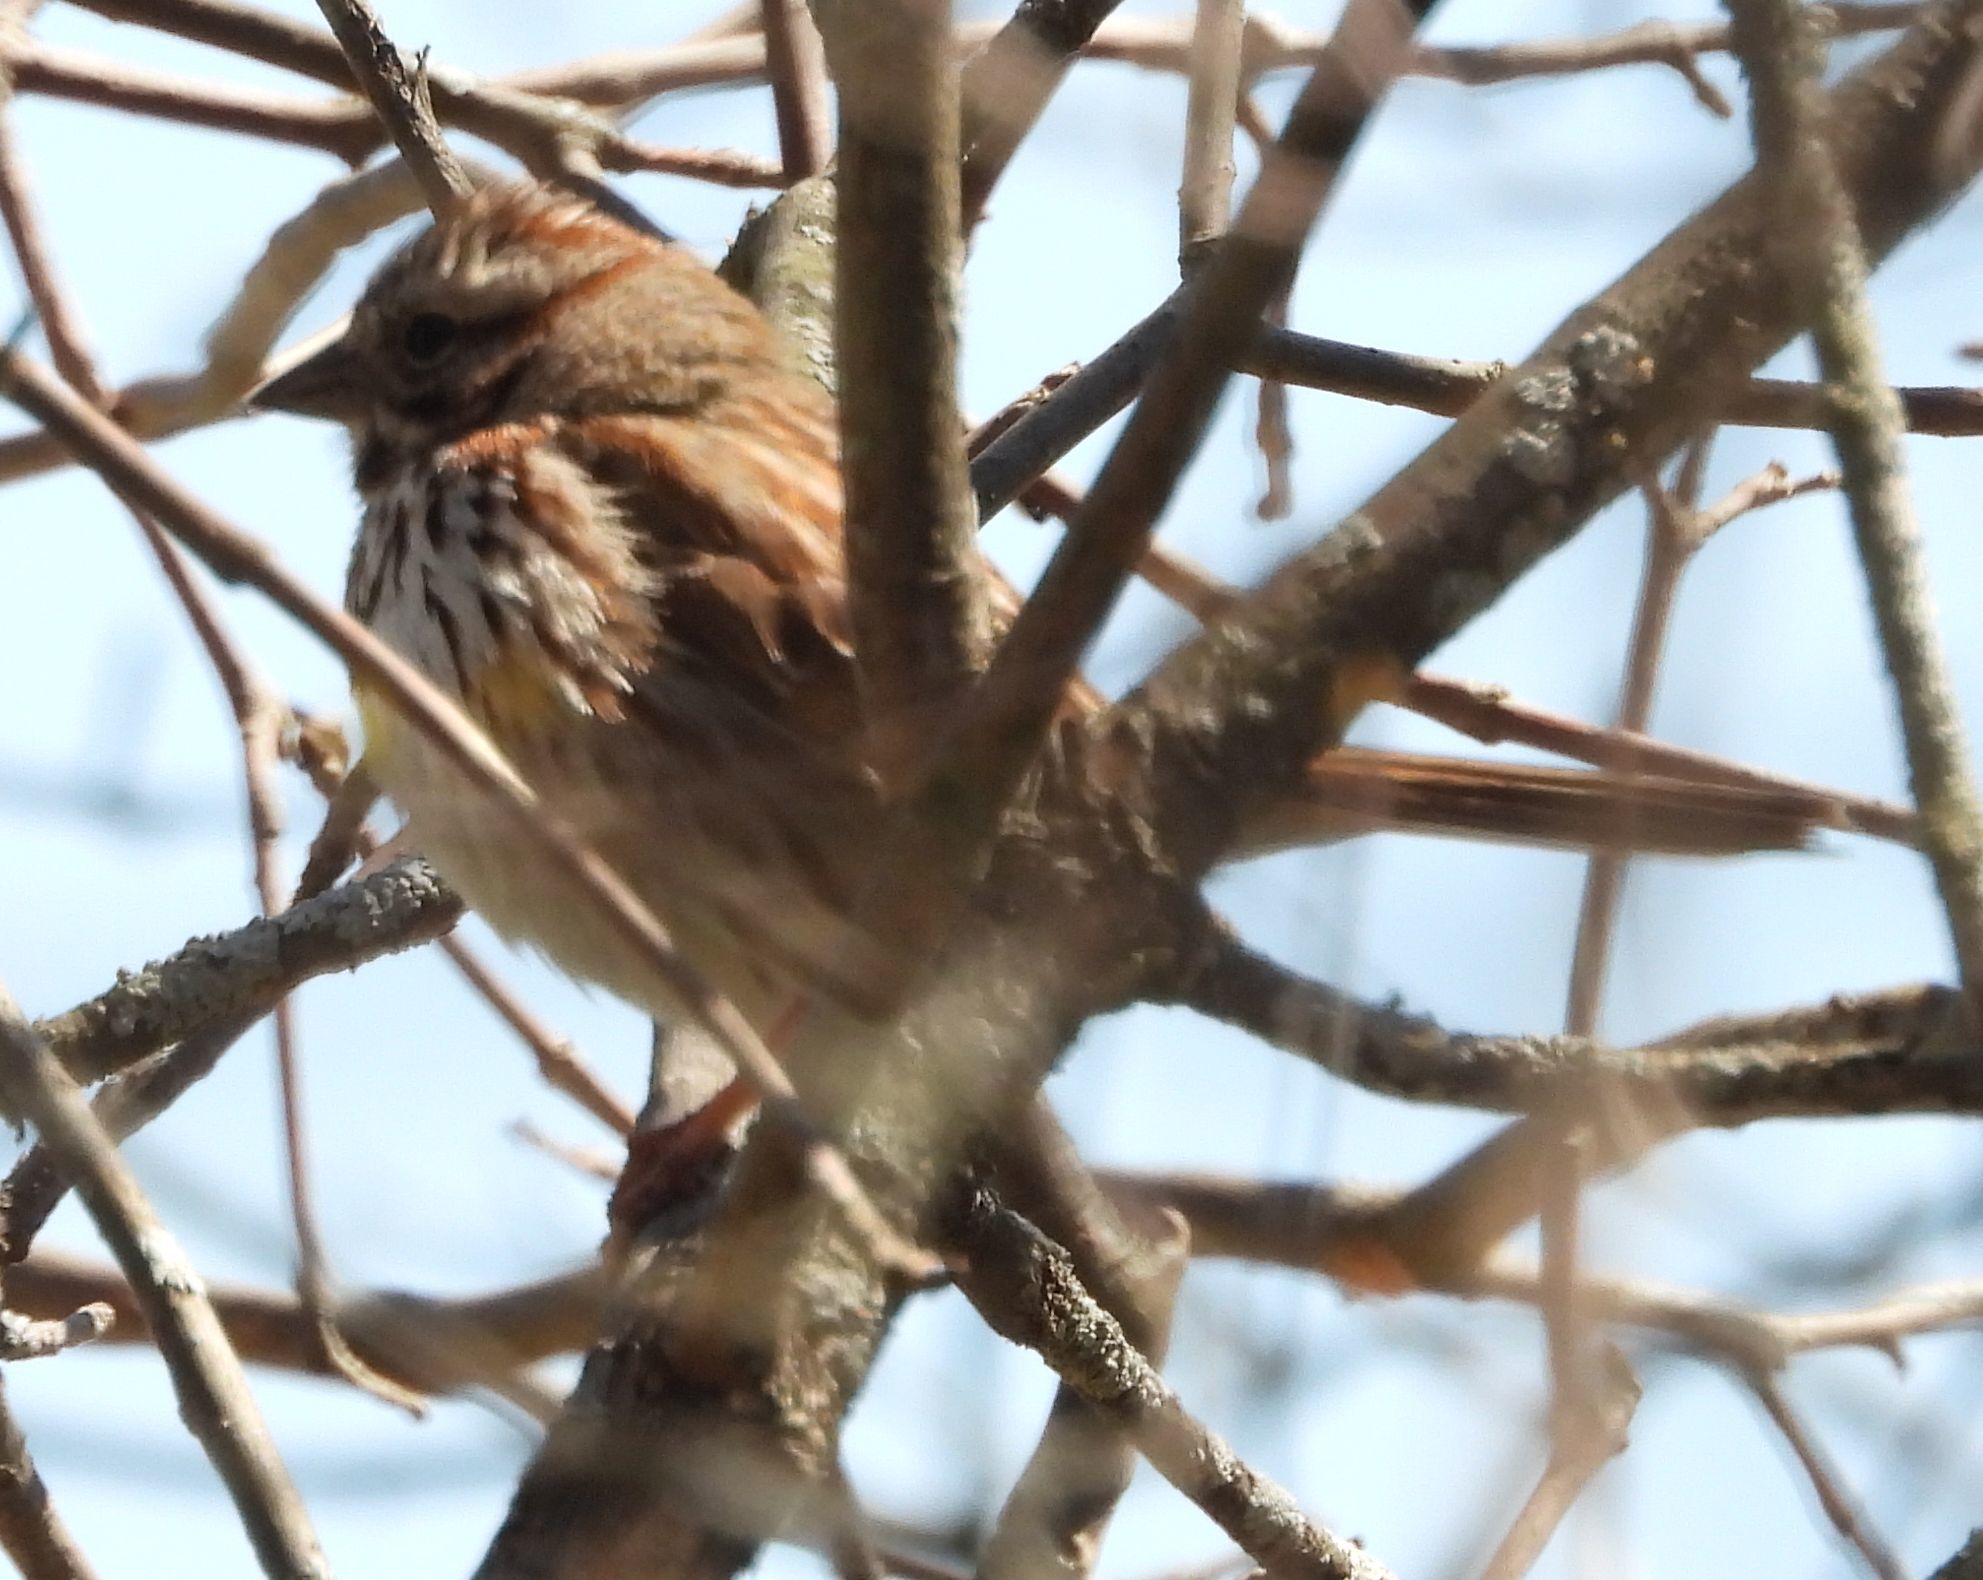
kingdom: Animalia
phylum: Chordata
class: Aves
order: Passeriformes
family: Passerellidae
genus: Melospiza
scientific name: Melospiza melodia
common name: Song sparrow
